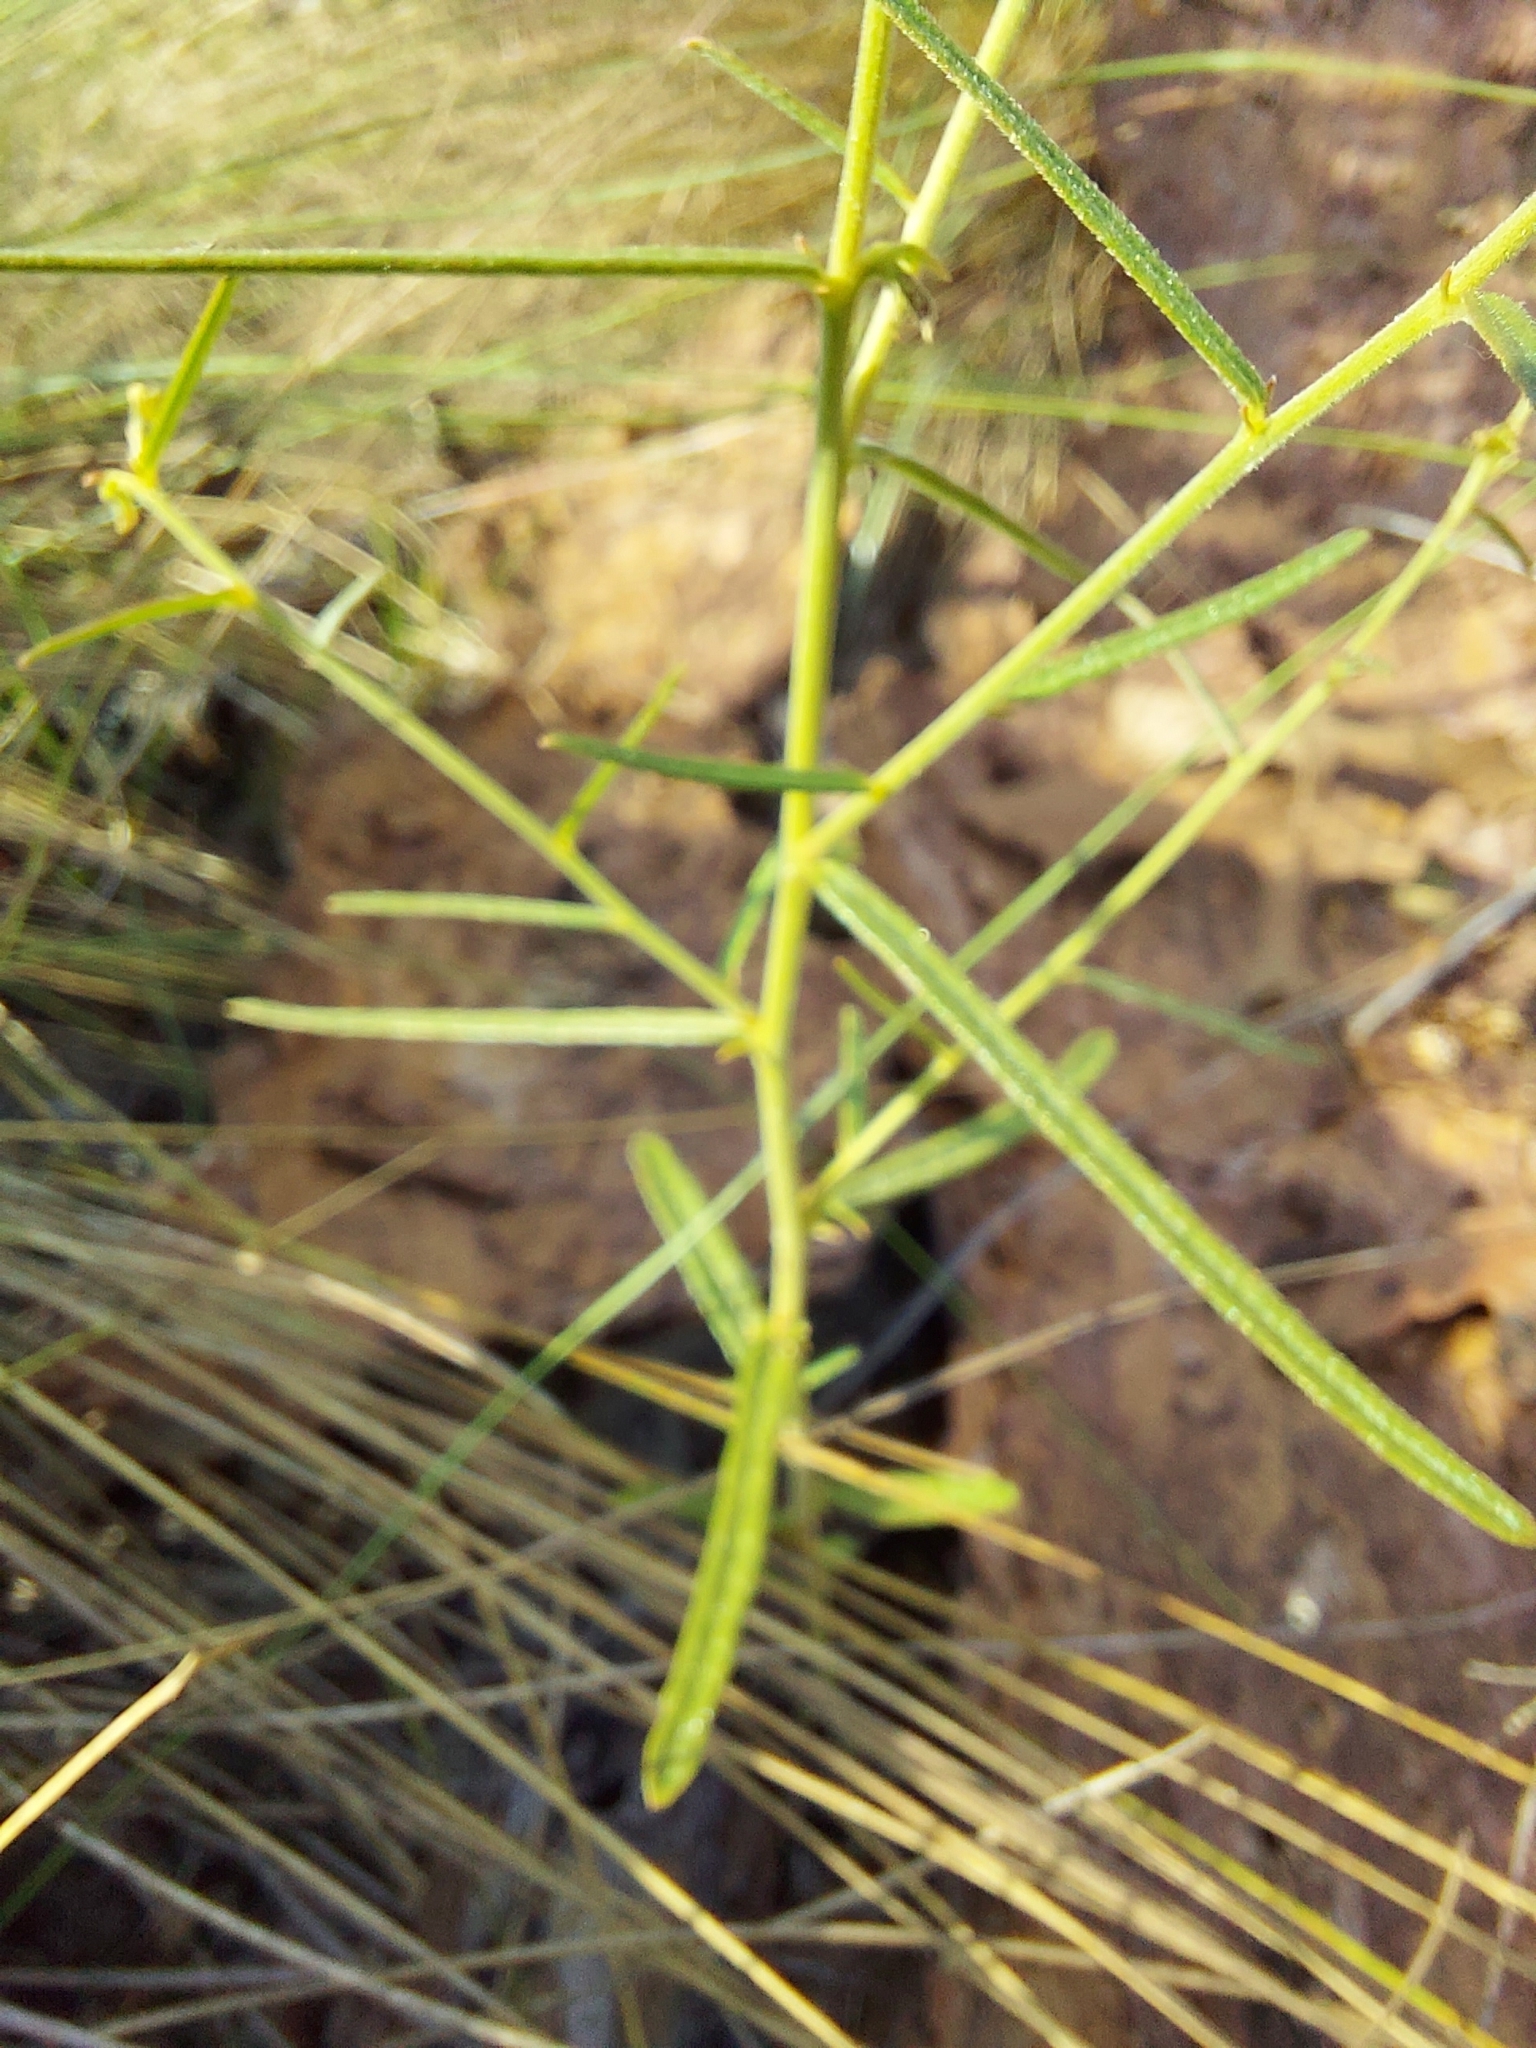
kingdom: Plantae
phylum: Tracheophyta
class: Magnoliopsida
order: Malpighiales
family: Euphorbiaceae
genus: Tragia
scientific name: Tragia urens
